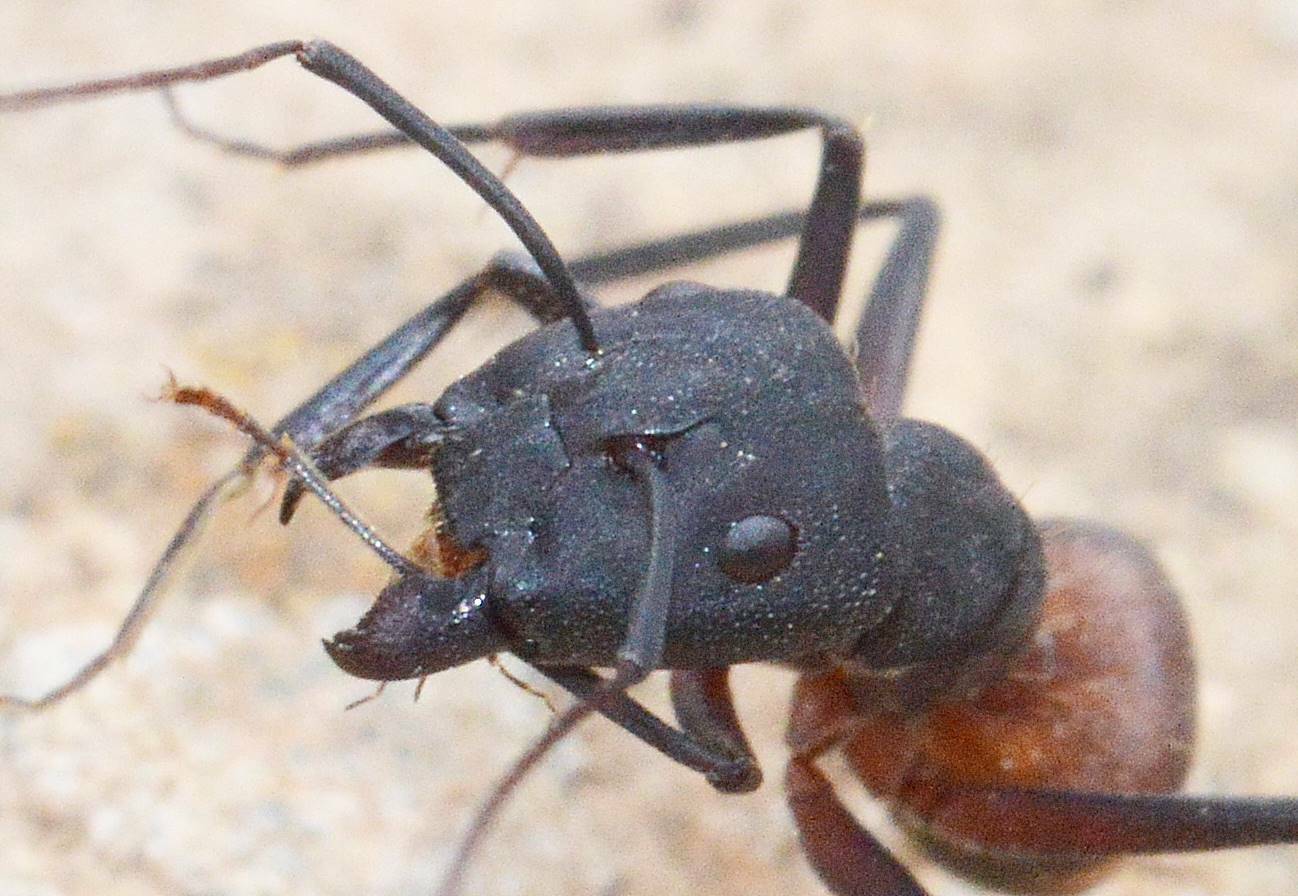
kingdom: Animalia
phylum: Arthropoda
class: Insecta
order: Hymenoptera
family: Formicidae
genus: Camponotus
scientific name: Camponotus cruentatus
